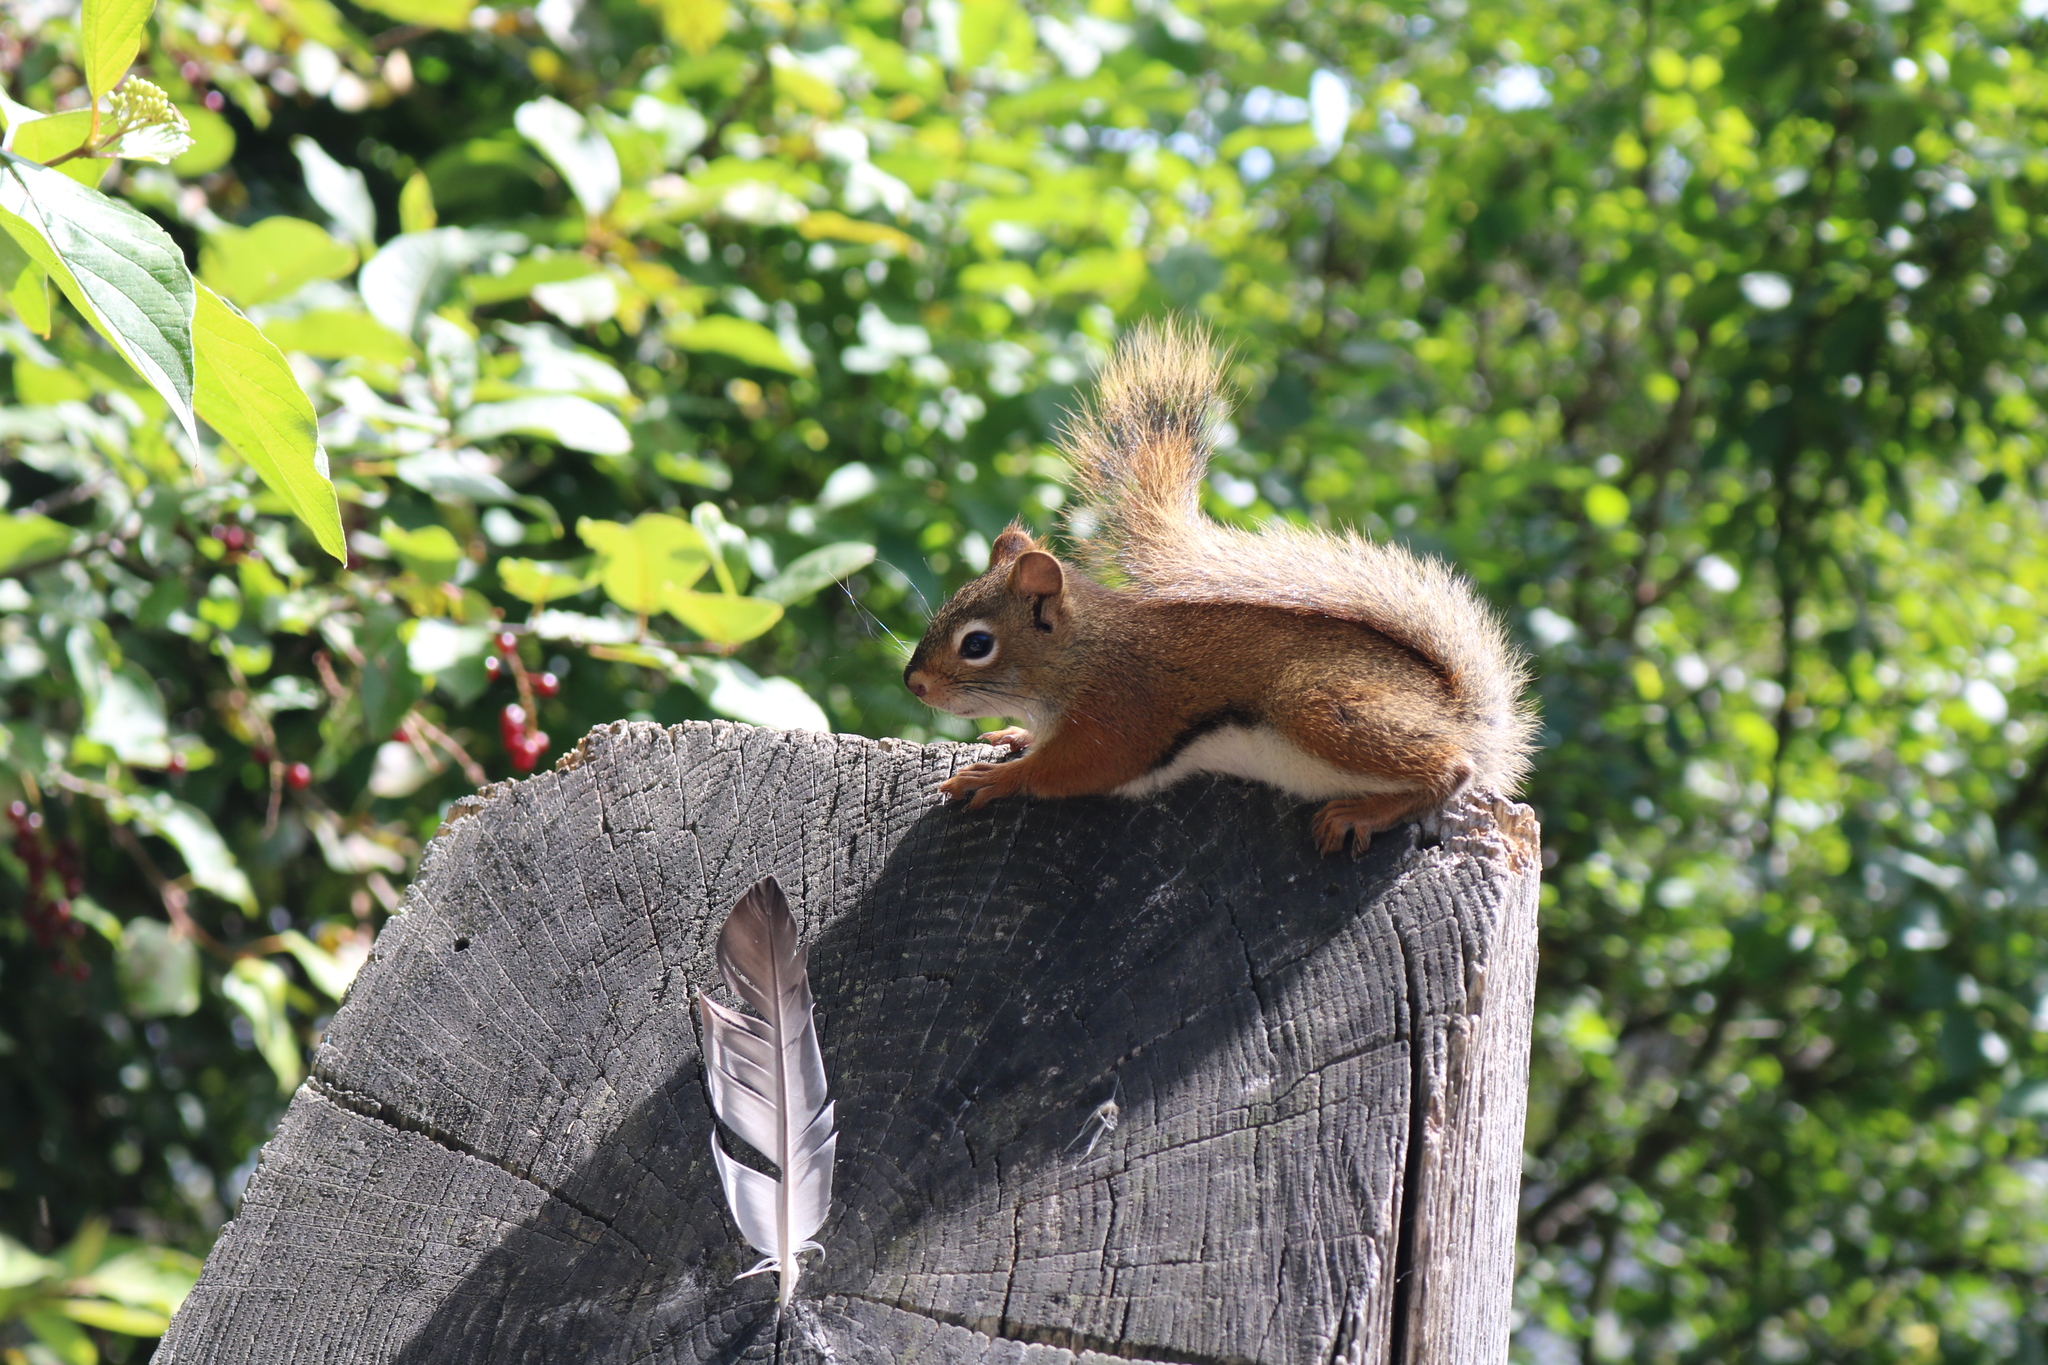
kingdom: Animalia
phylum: Chordata
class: Mammalia
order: Rodentia
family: Sciuridae
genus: Tamiasciurus
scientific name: Tamiasciurus hudsonicus
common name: Red squirrel
